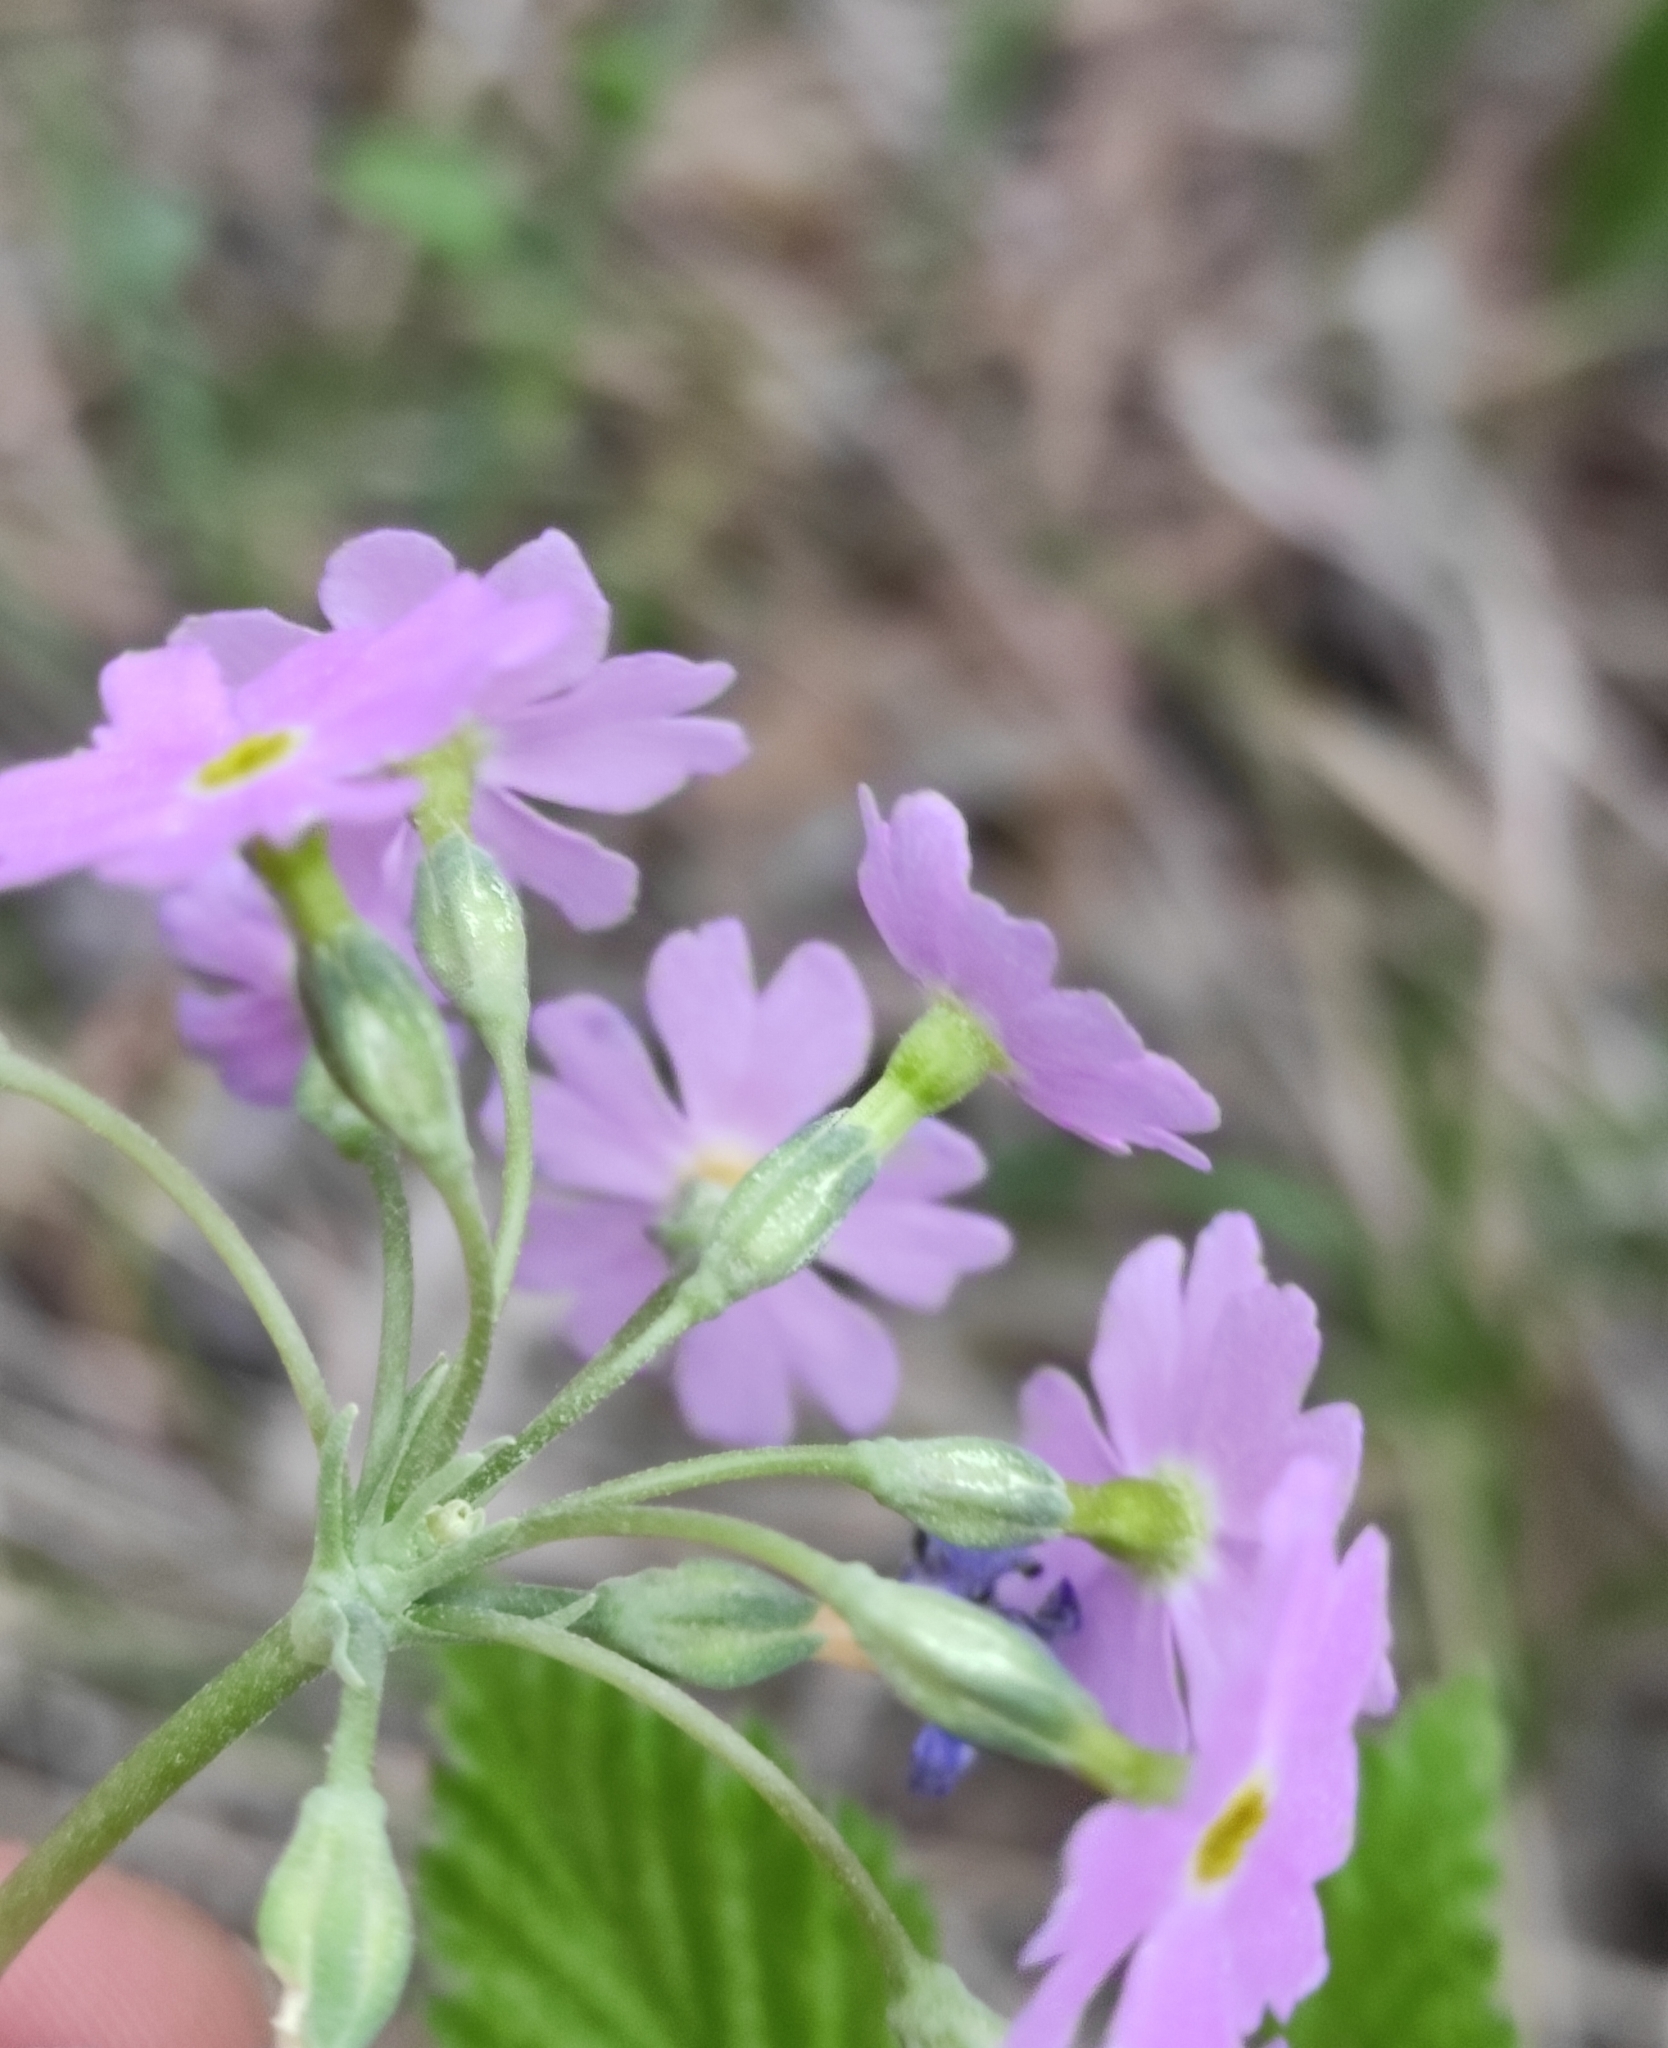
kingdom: Plantae
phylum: Tracheophyta
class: Magnoliopsida
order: Ericales
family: Primulaceae
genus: Primula
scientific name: Primula farinosa
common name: Bird's-eye primrose
